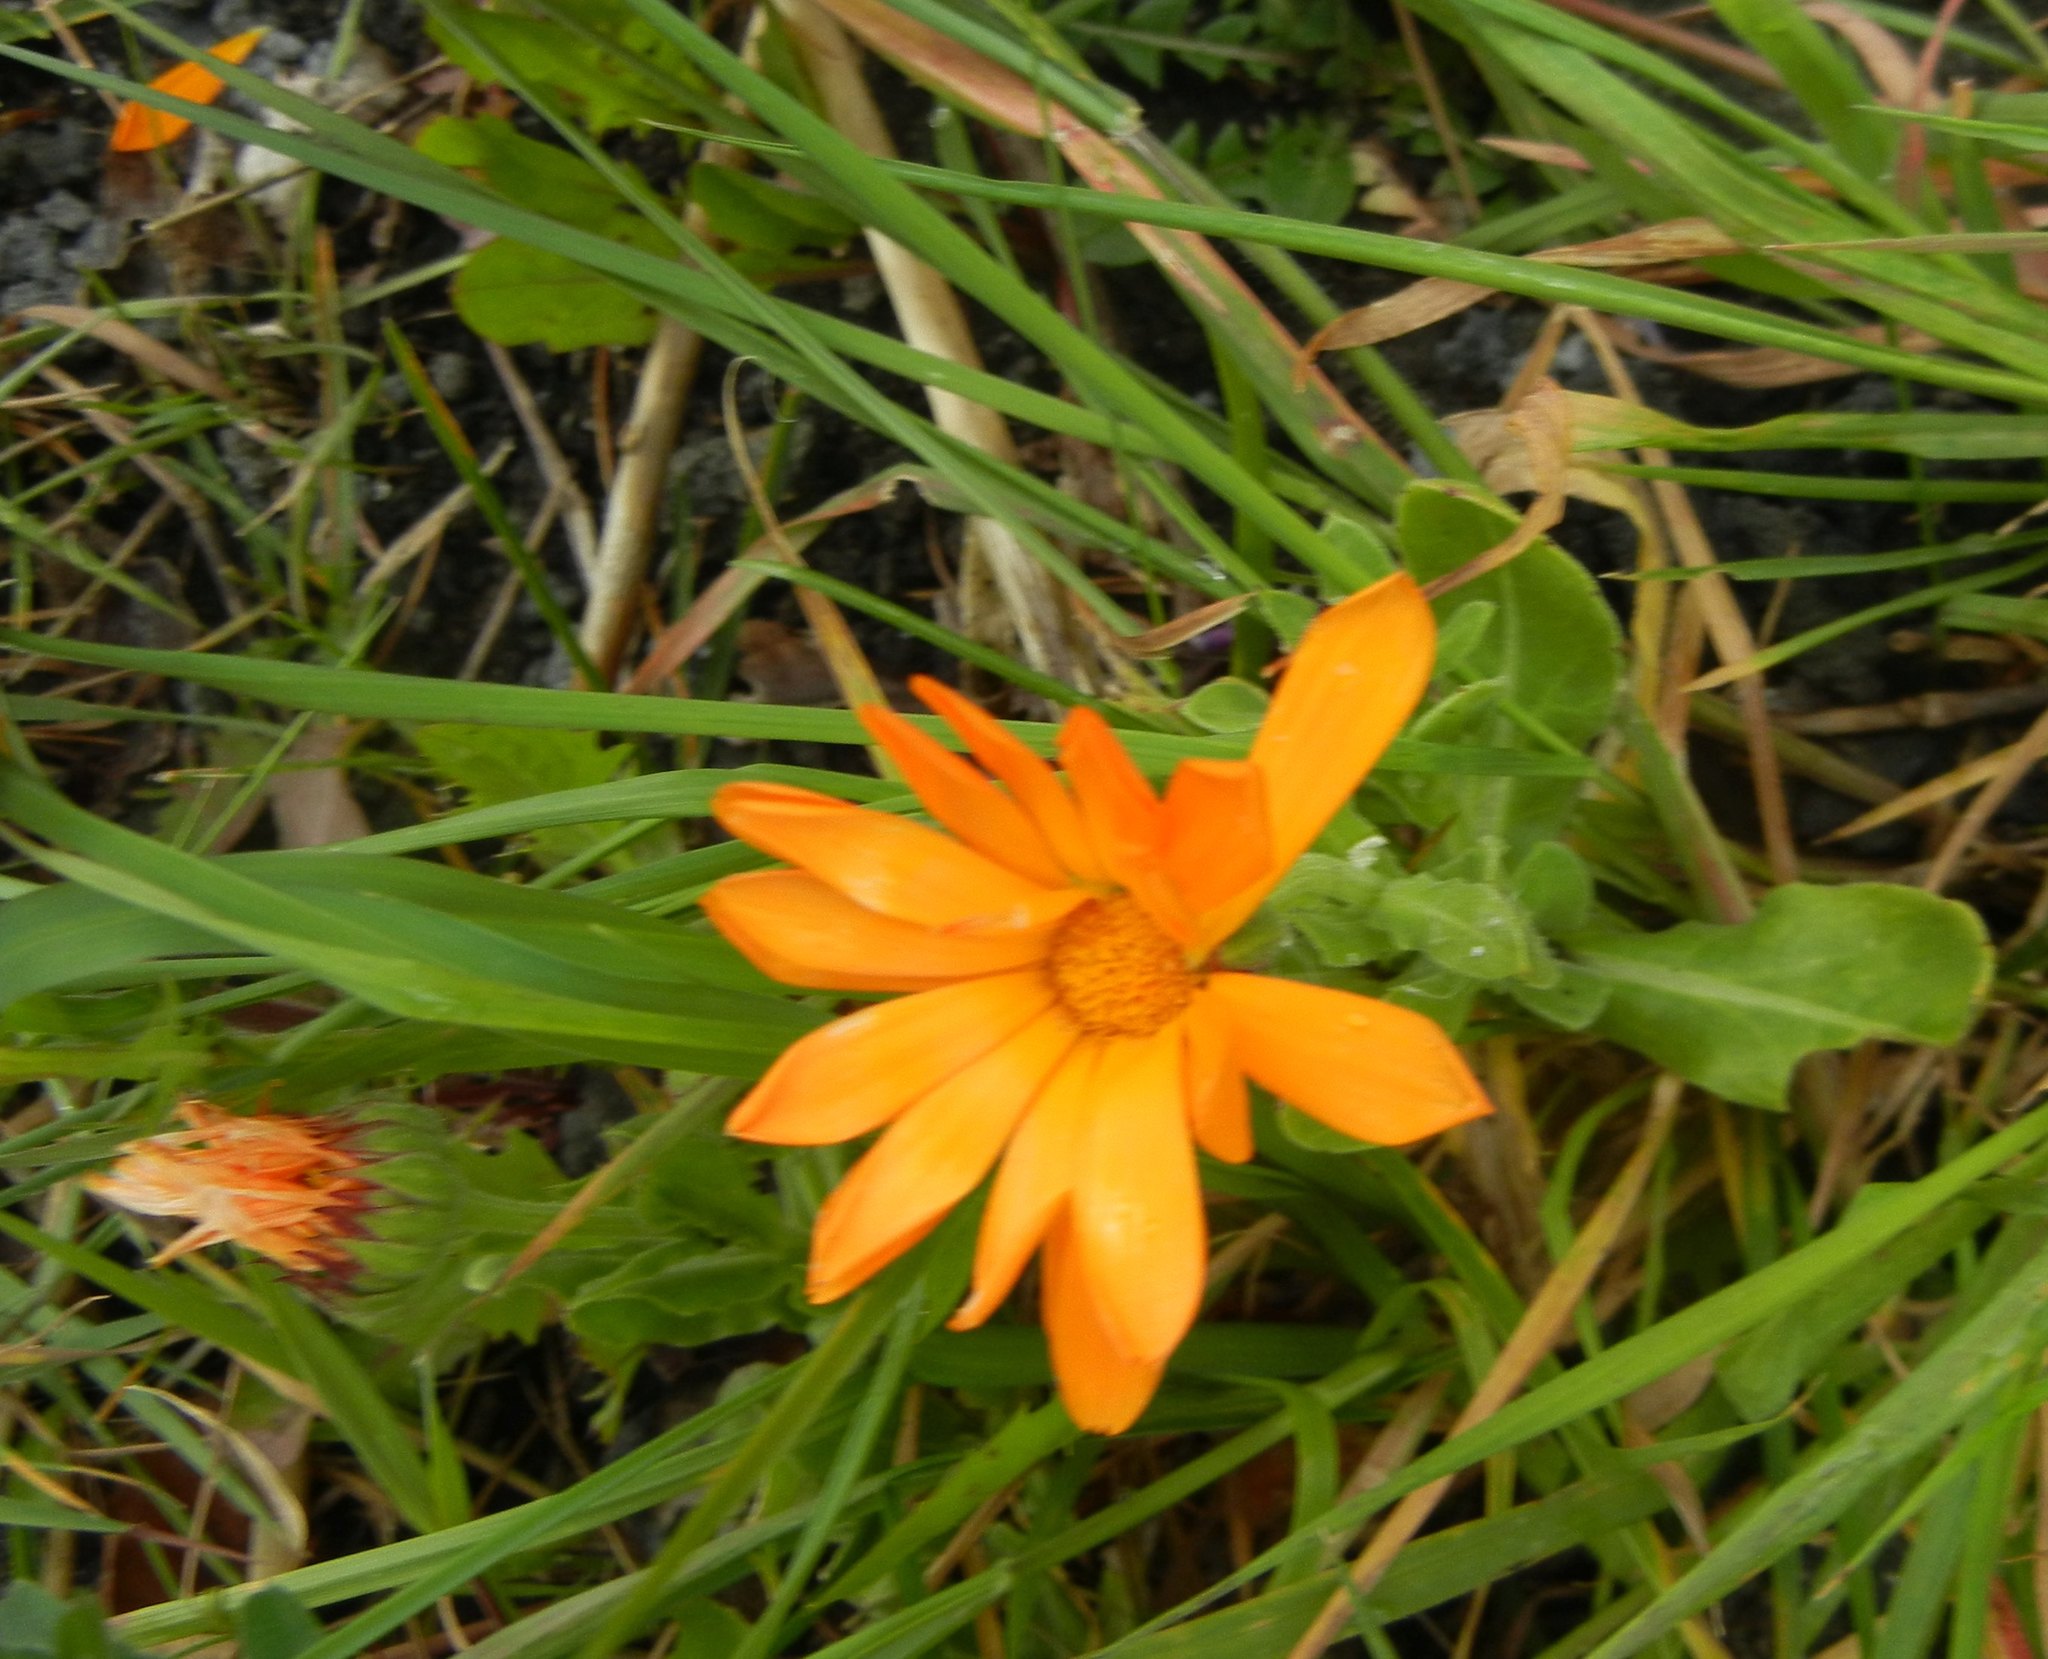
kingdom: Plantae
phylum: Tracheophyta
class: Magnoliopsida
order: Asterales
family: Asteraceae
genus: Calendula
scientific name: Calendula officinalis
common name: Pot marigold
